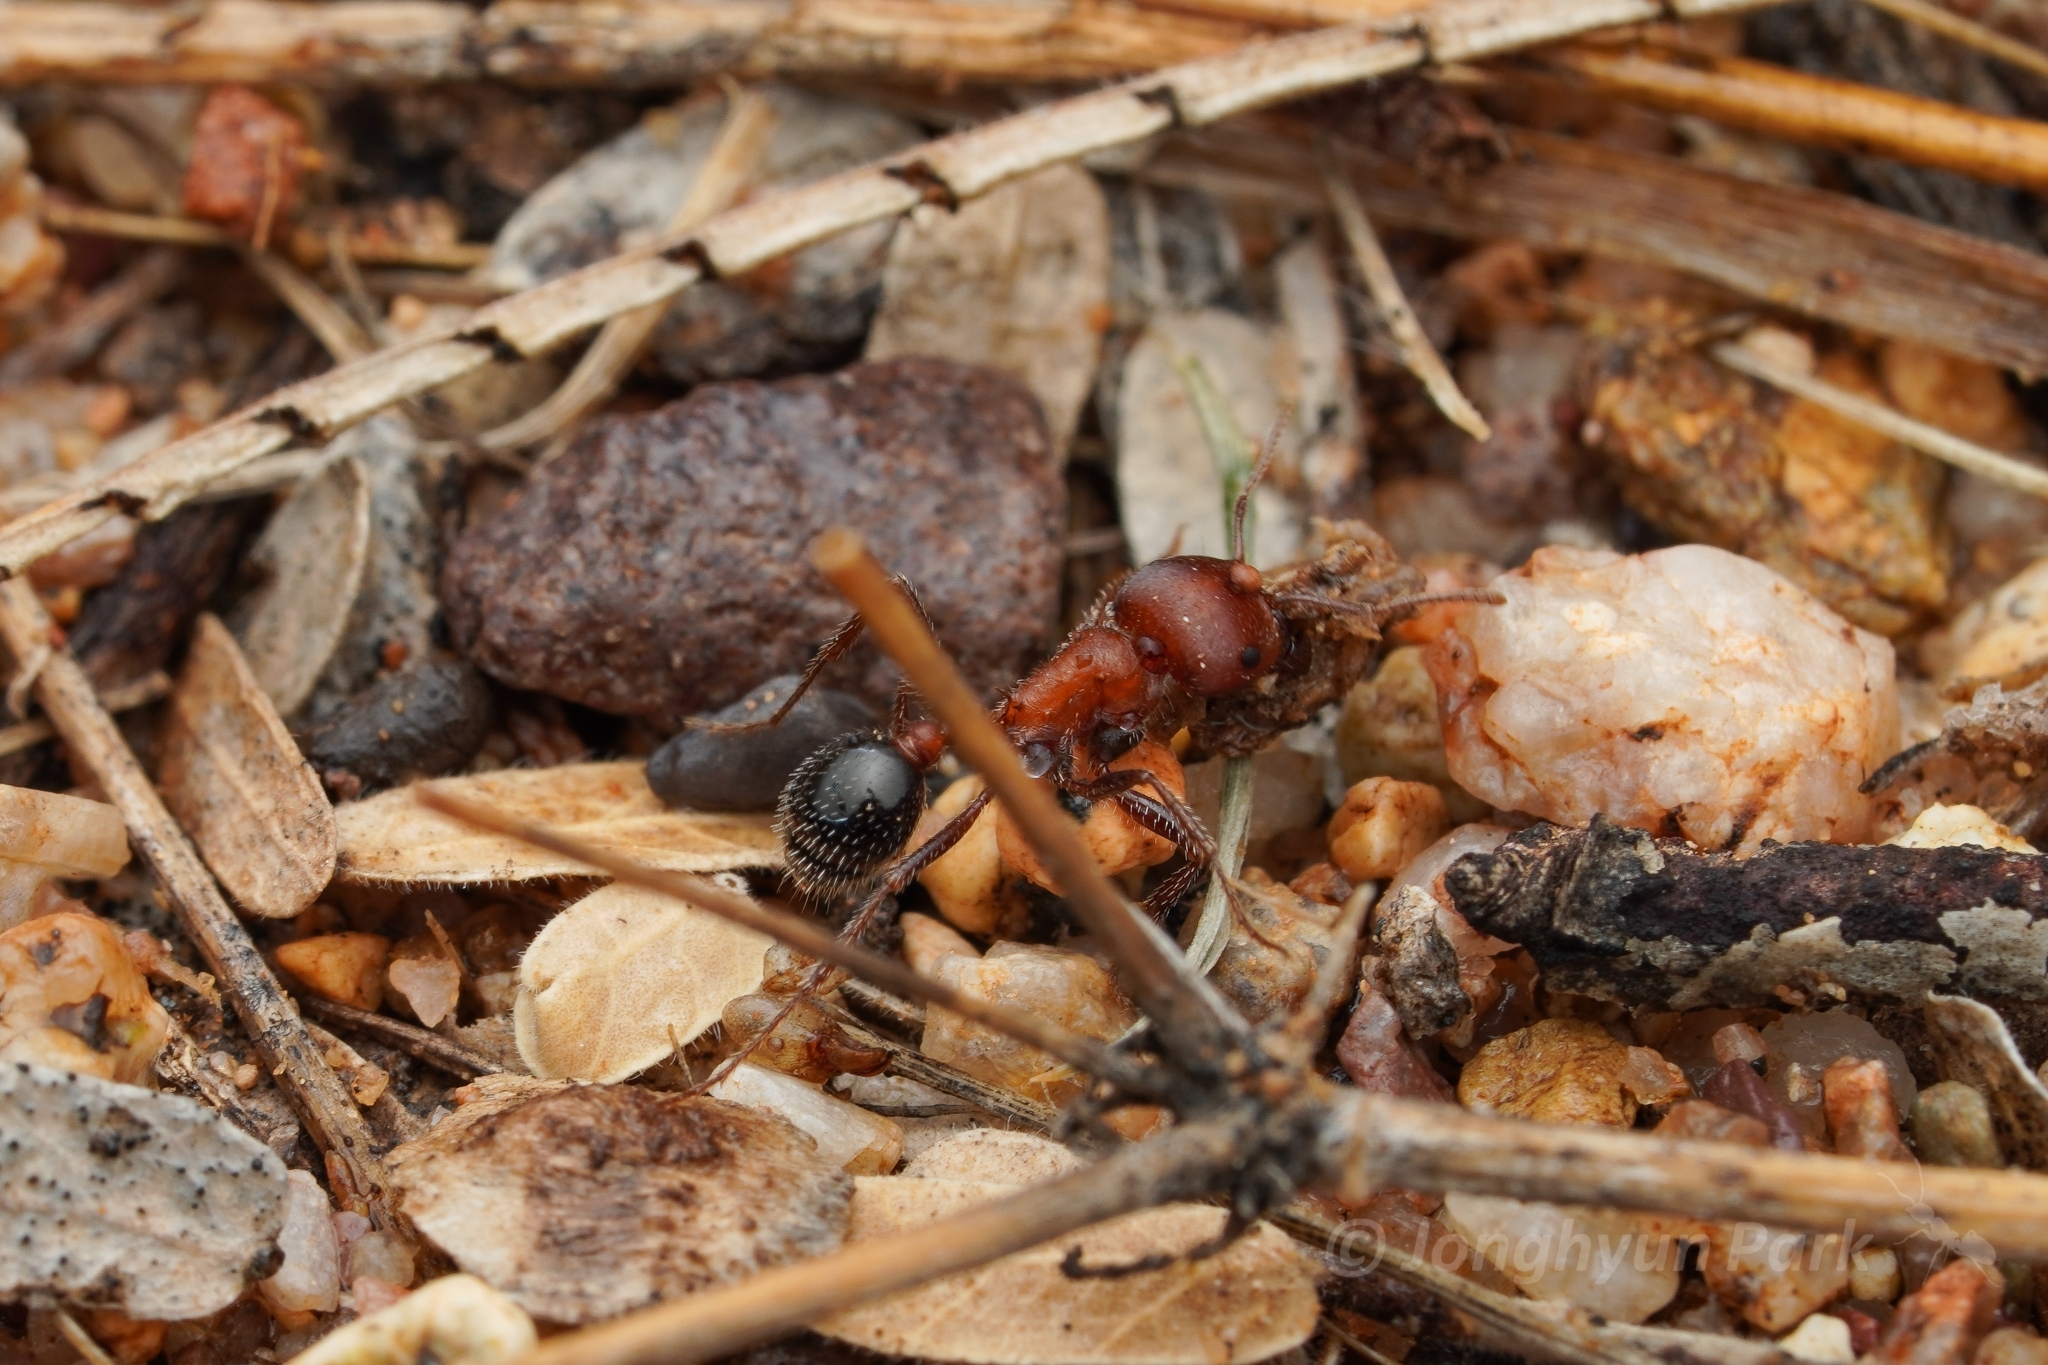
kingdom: Animalia
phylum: Arthropoda
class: Insecta
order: Hymenoptera
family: Formicidae
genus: Pogonomyrmex
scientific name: Pogonomyrmex bicolor
